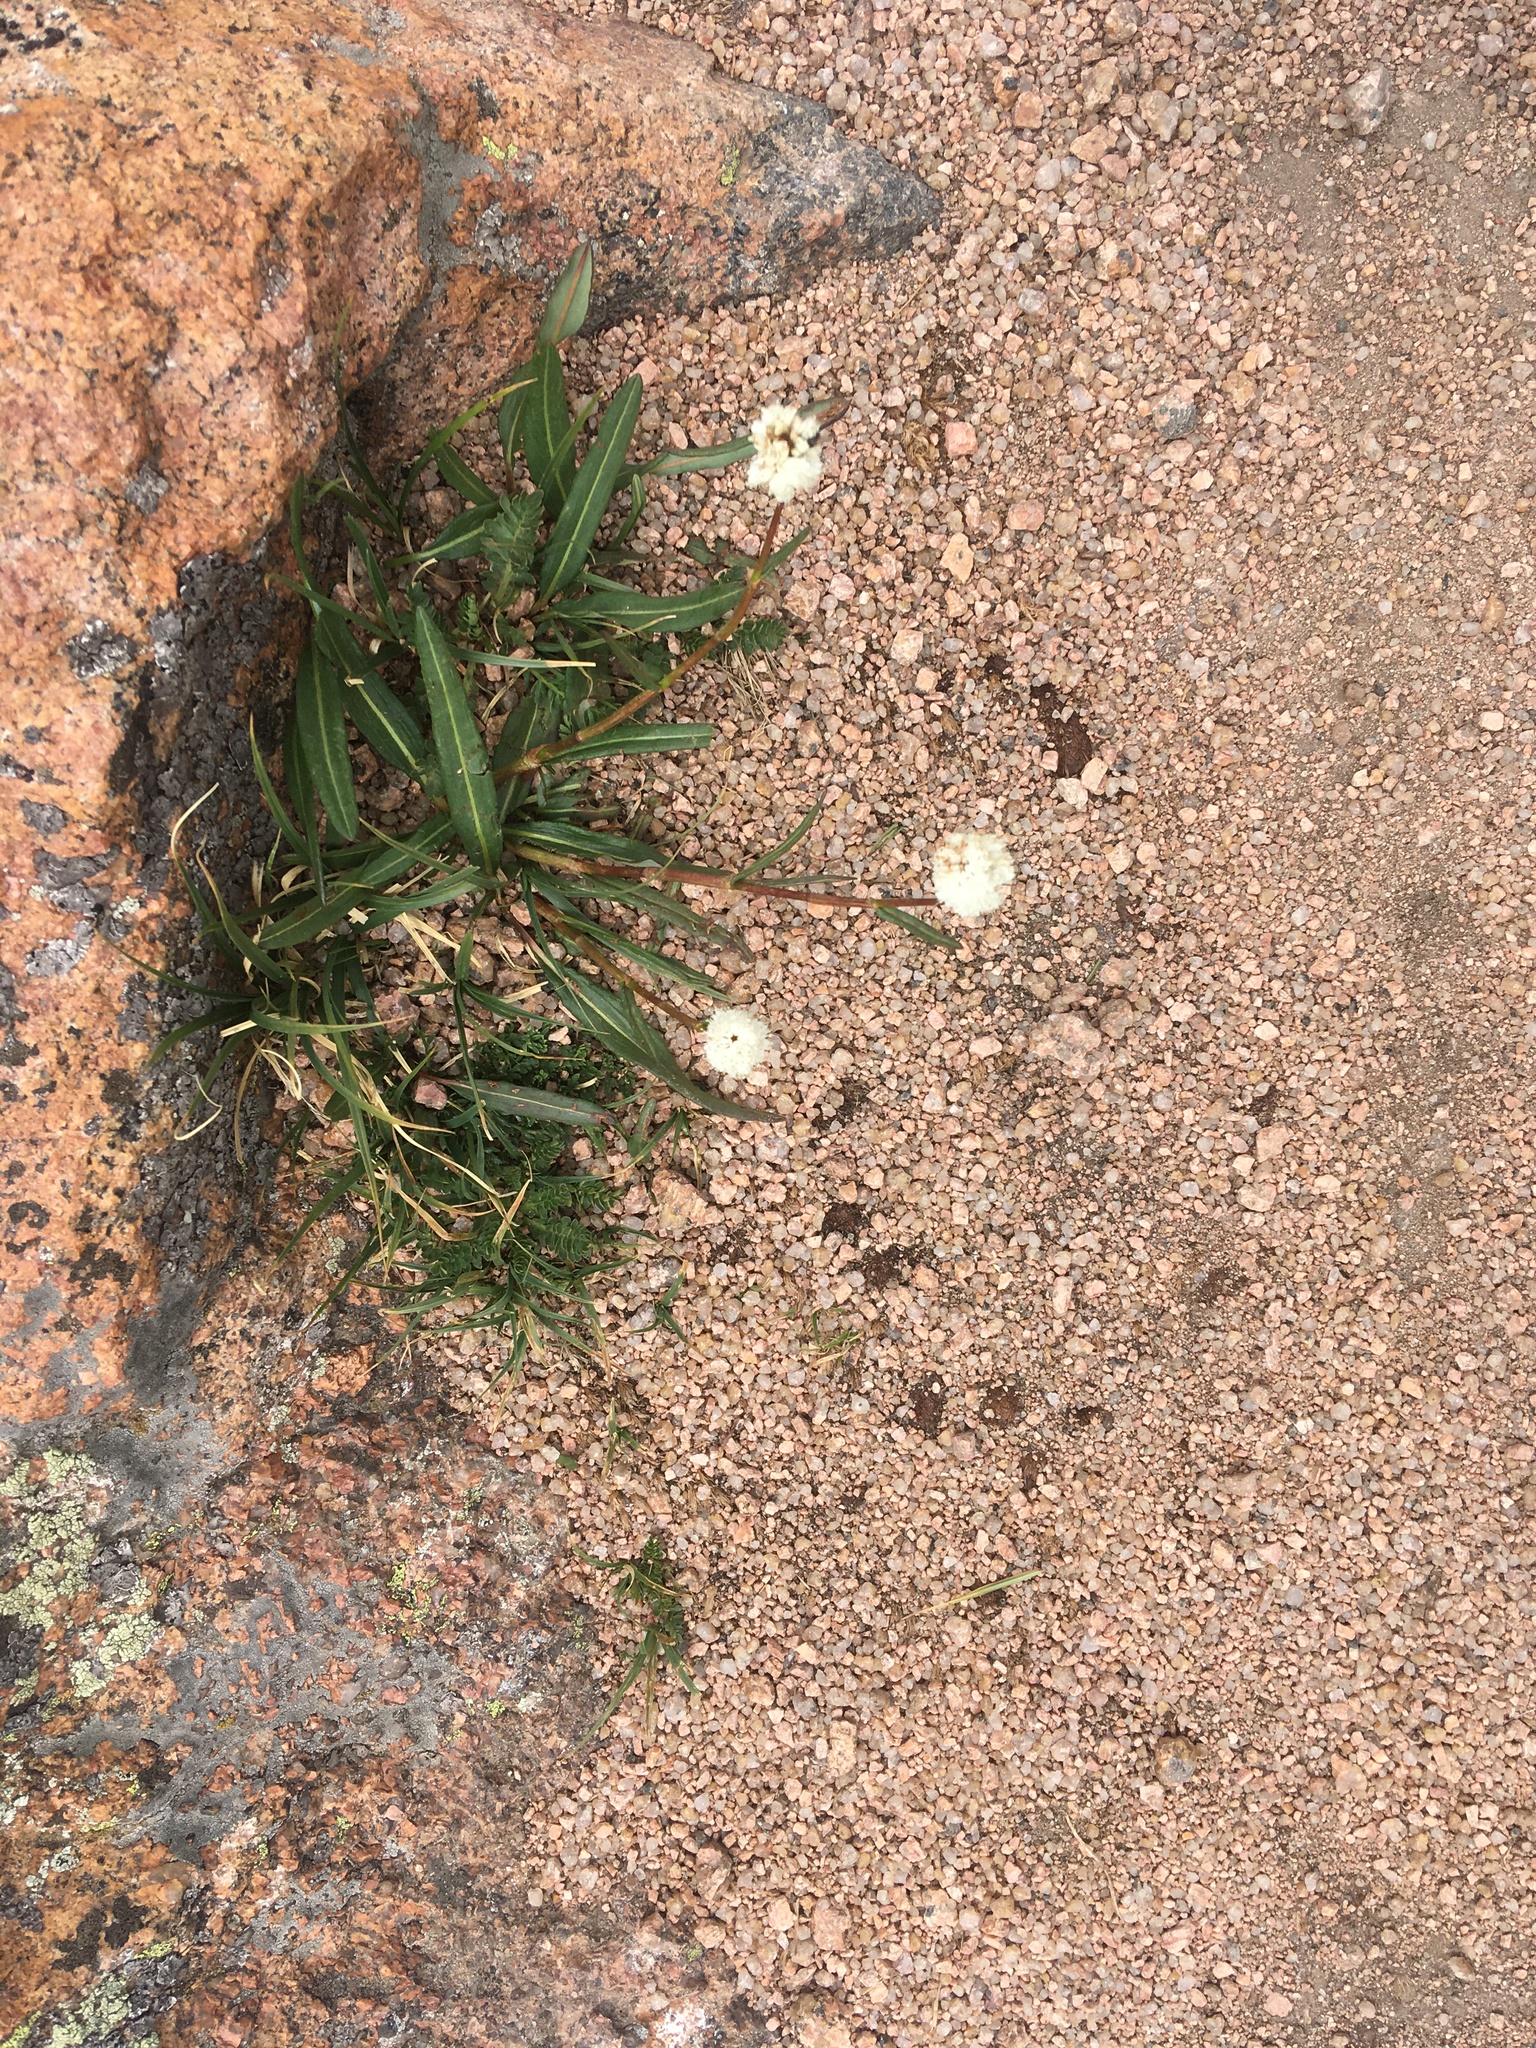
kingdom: Plantae
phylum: Tracheophyta
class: Magnoliopsida
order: Caryophyllales
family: Polygonaceae
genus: Bistorta
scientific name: Bistorta bistortoides
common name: American bistort
